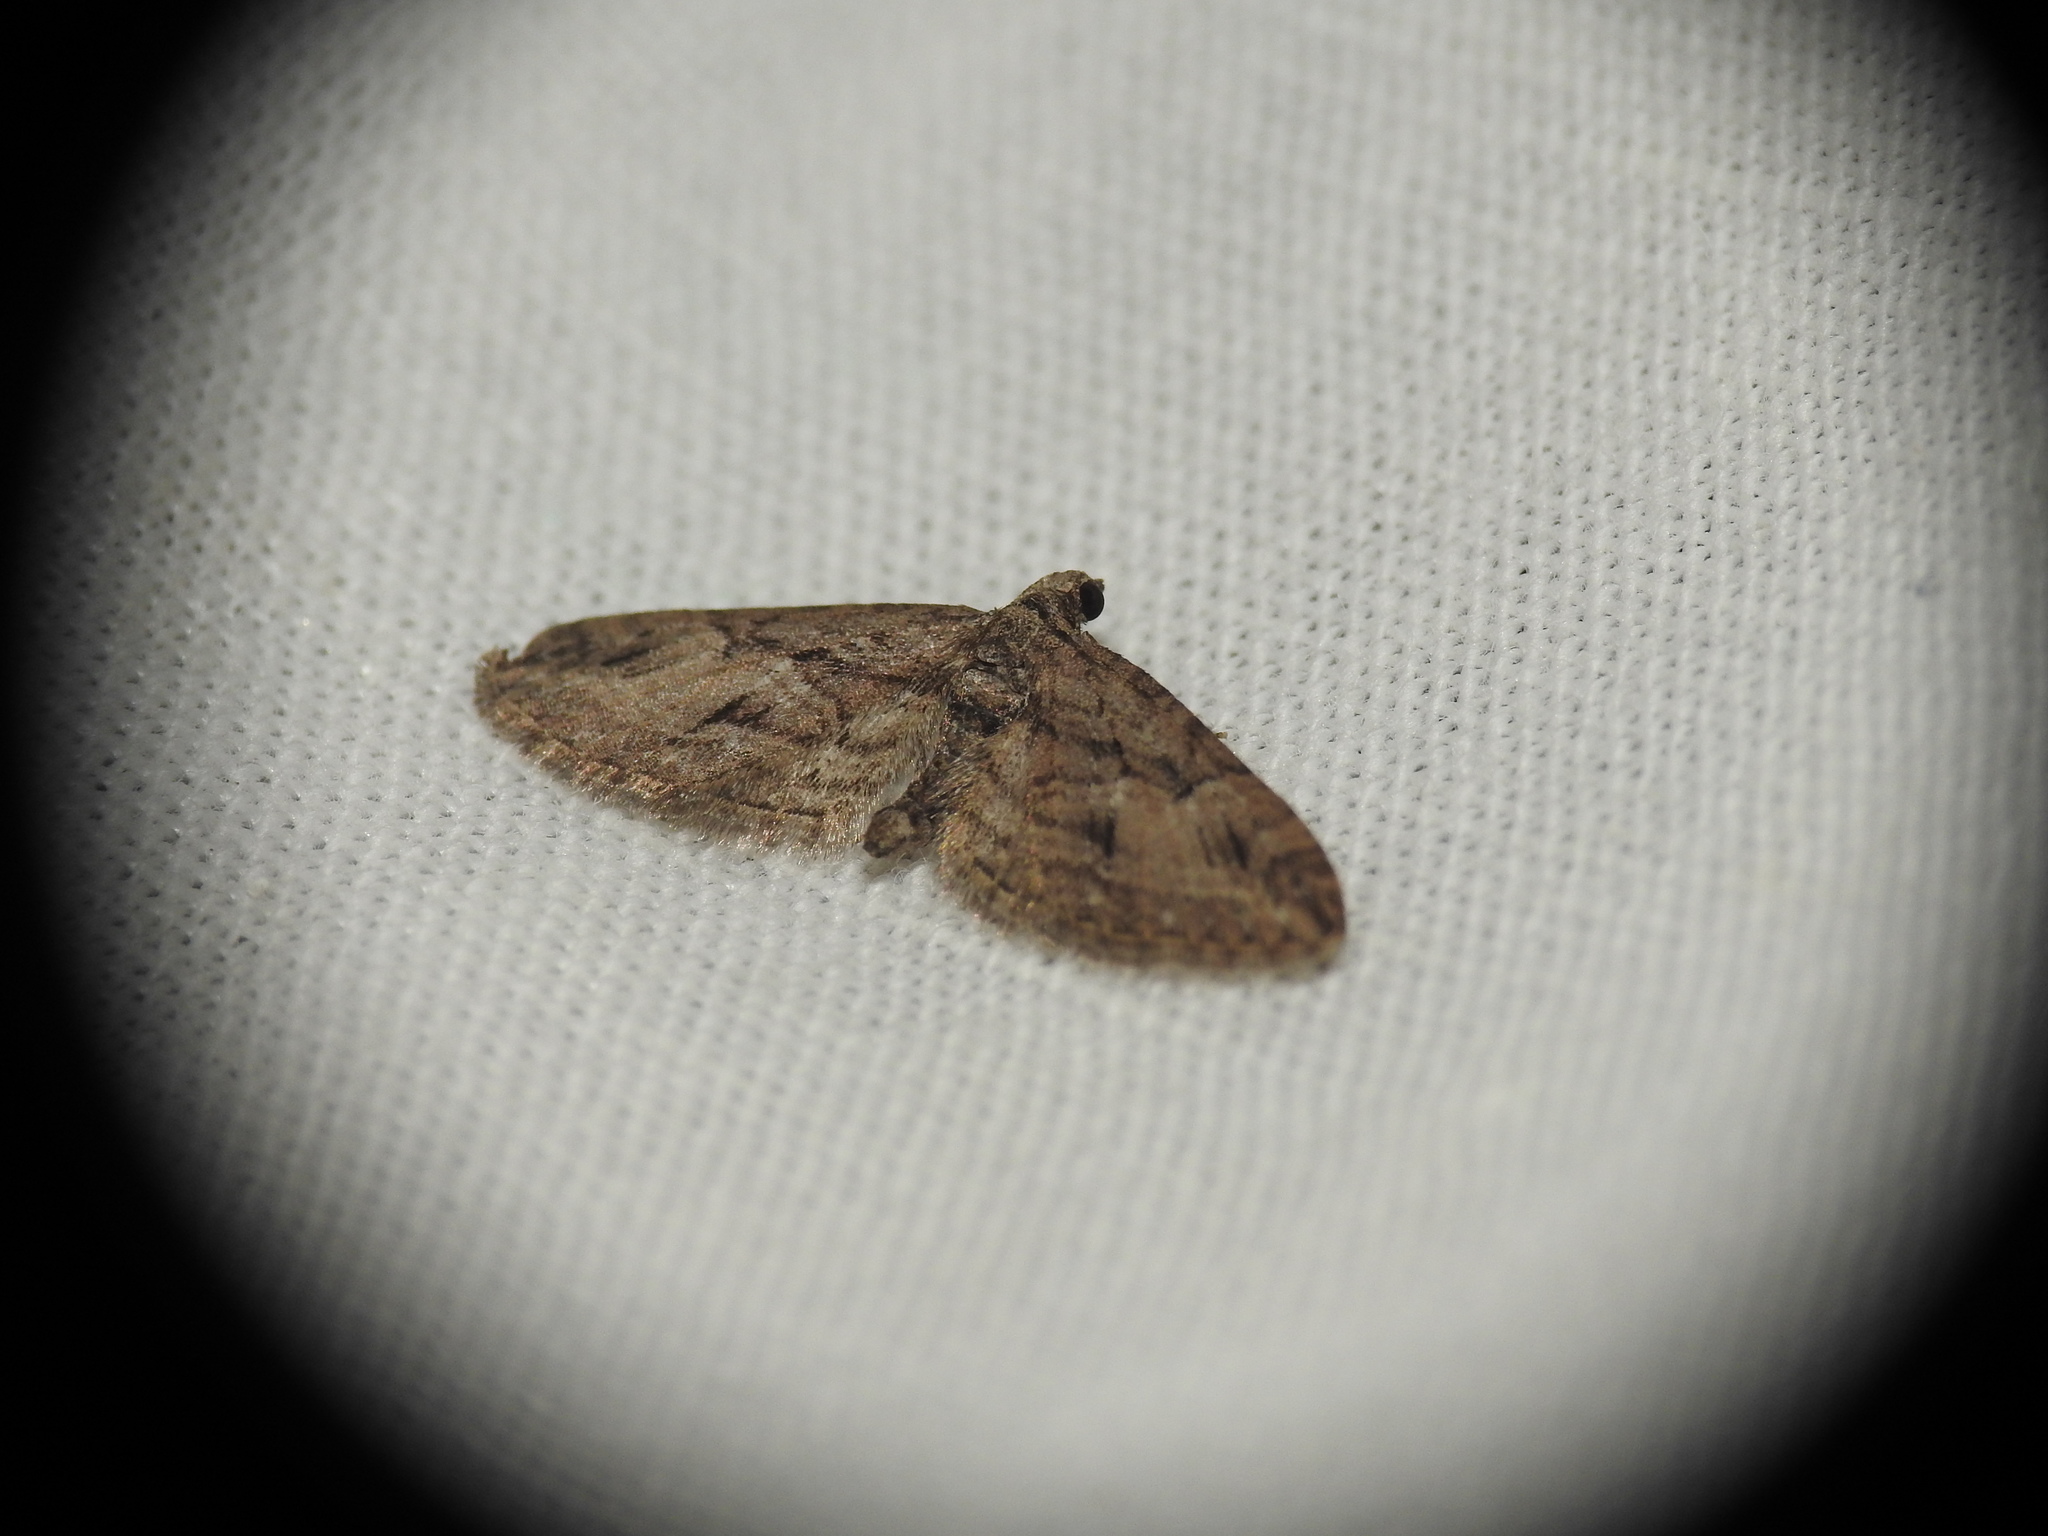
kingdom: Animalia
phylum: Arthropoda
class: Insecta
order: Lepidoptera
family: Geometridae
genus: Eupithecia
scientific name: Eupithecia oxycedrata
